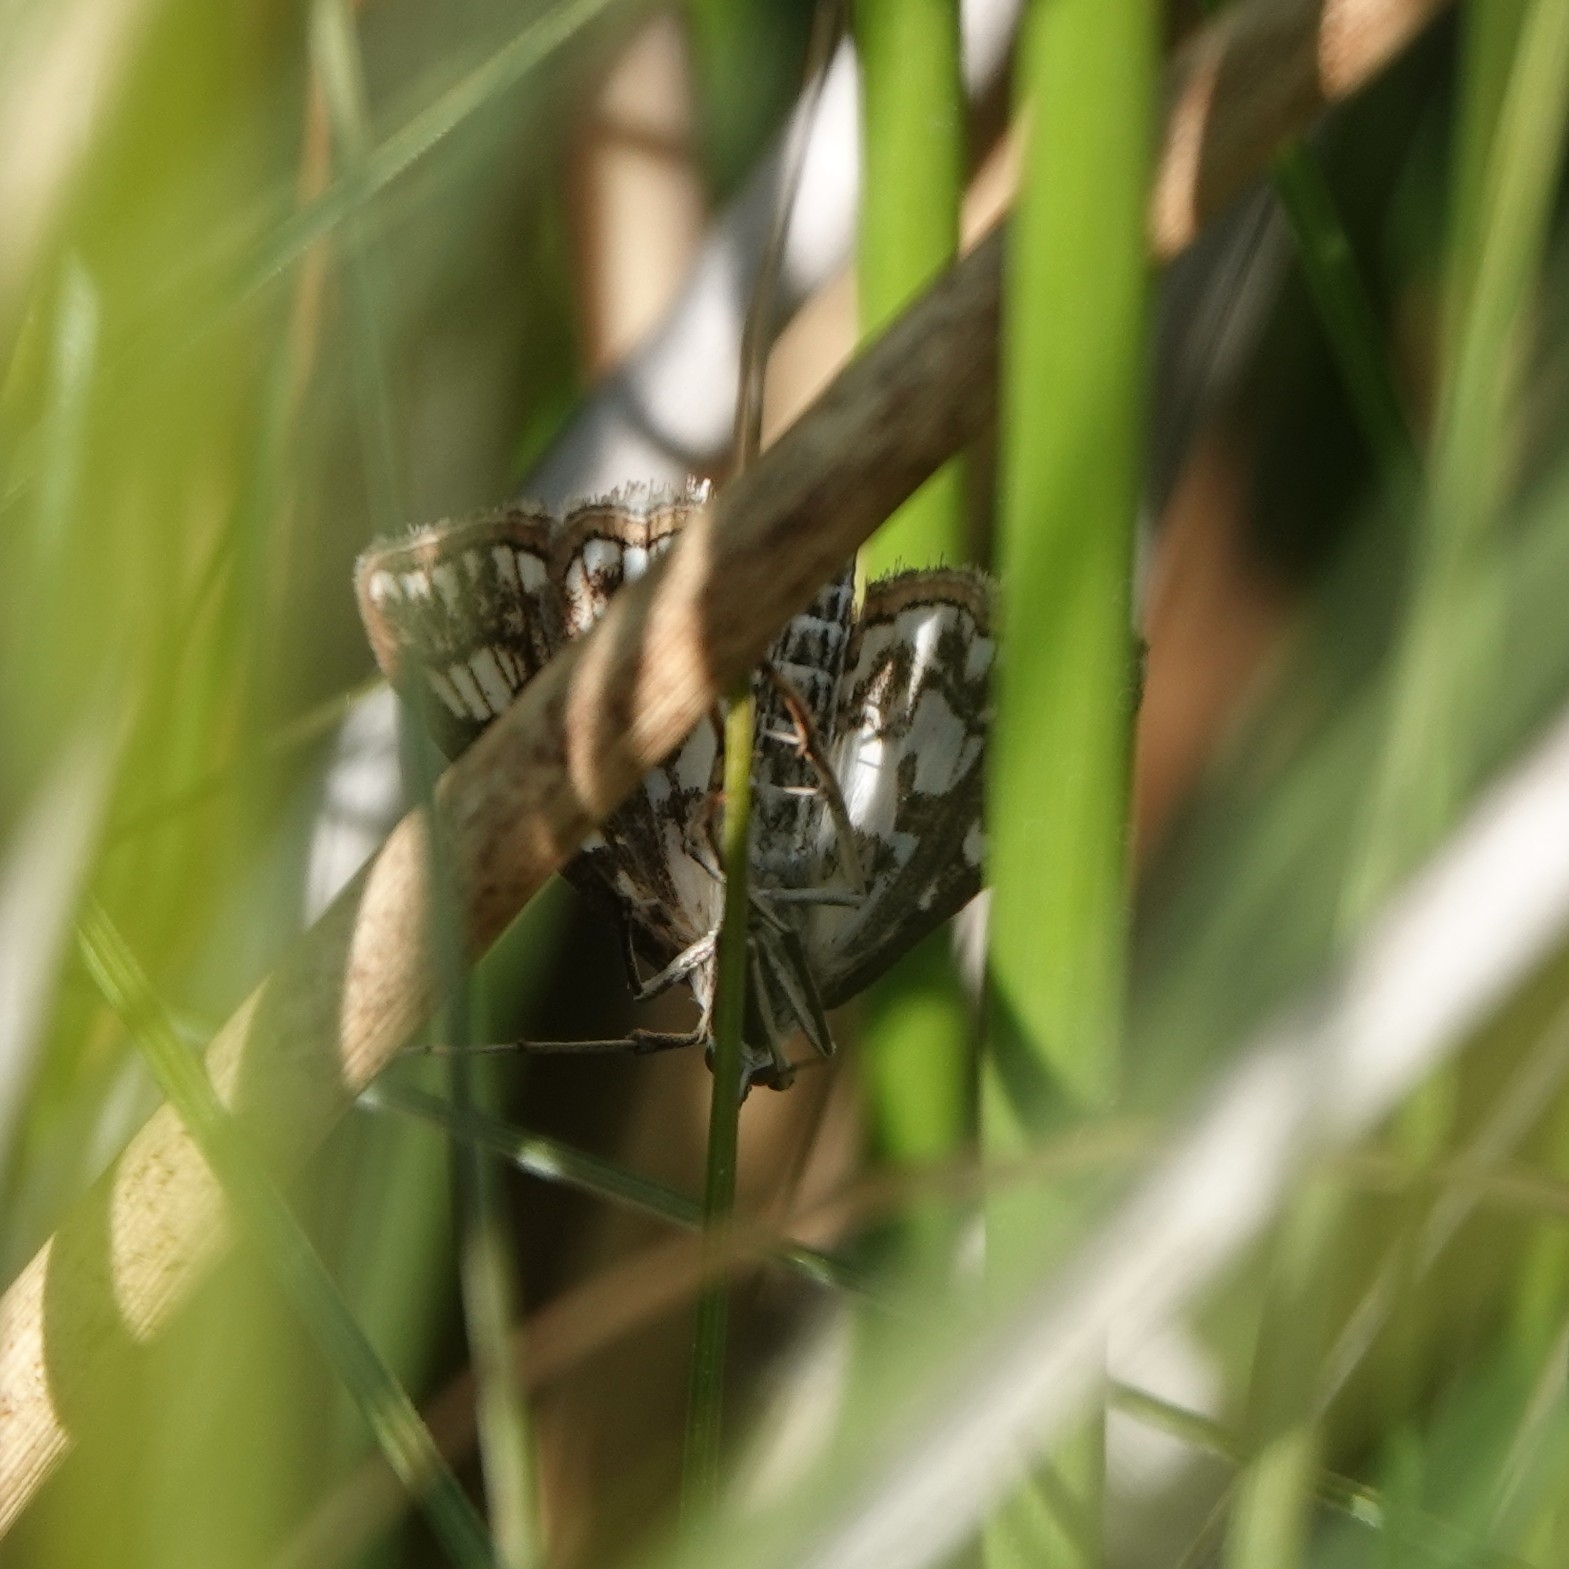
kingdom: Animalia
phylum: Arthropoda
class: Insecta
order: Lepidoptera
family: Crambidae
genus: Elophila
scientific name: Elophila nymphaeata
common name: Brown china-mark
